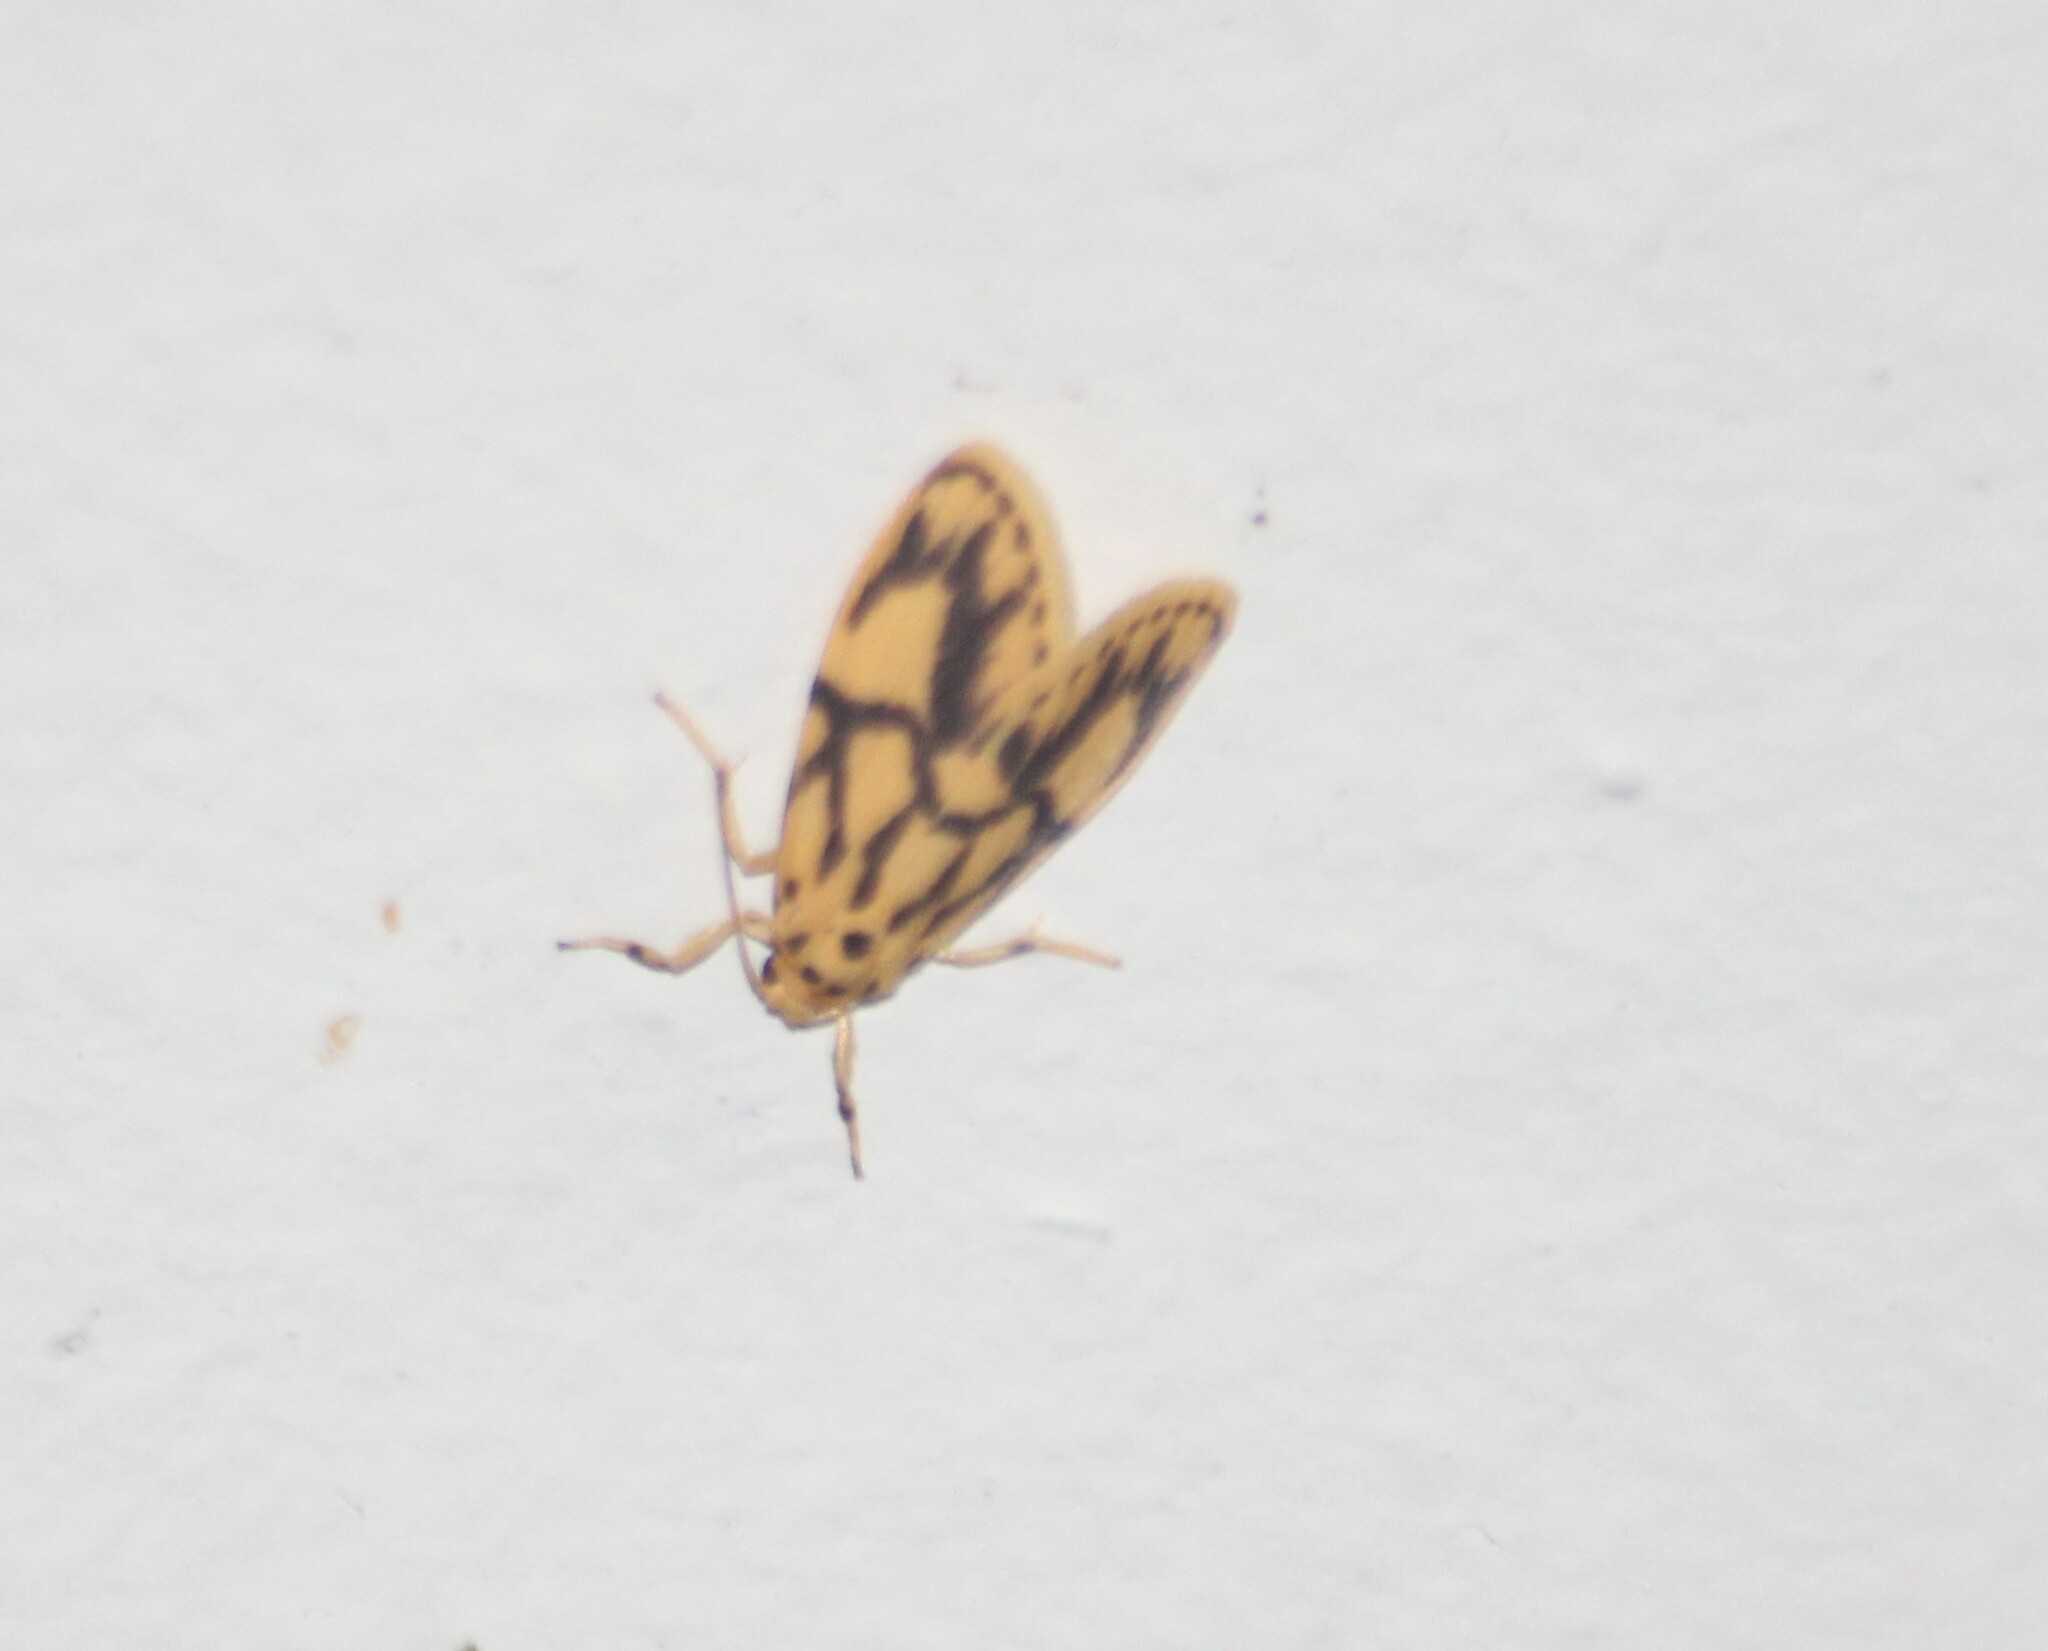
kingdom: Animalia
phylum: Arthropoda
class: Insecta
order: Lepidoptera
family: Erebidae
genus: Miltochrista
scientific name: Miltochrista terminospota
